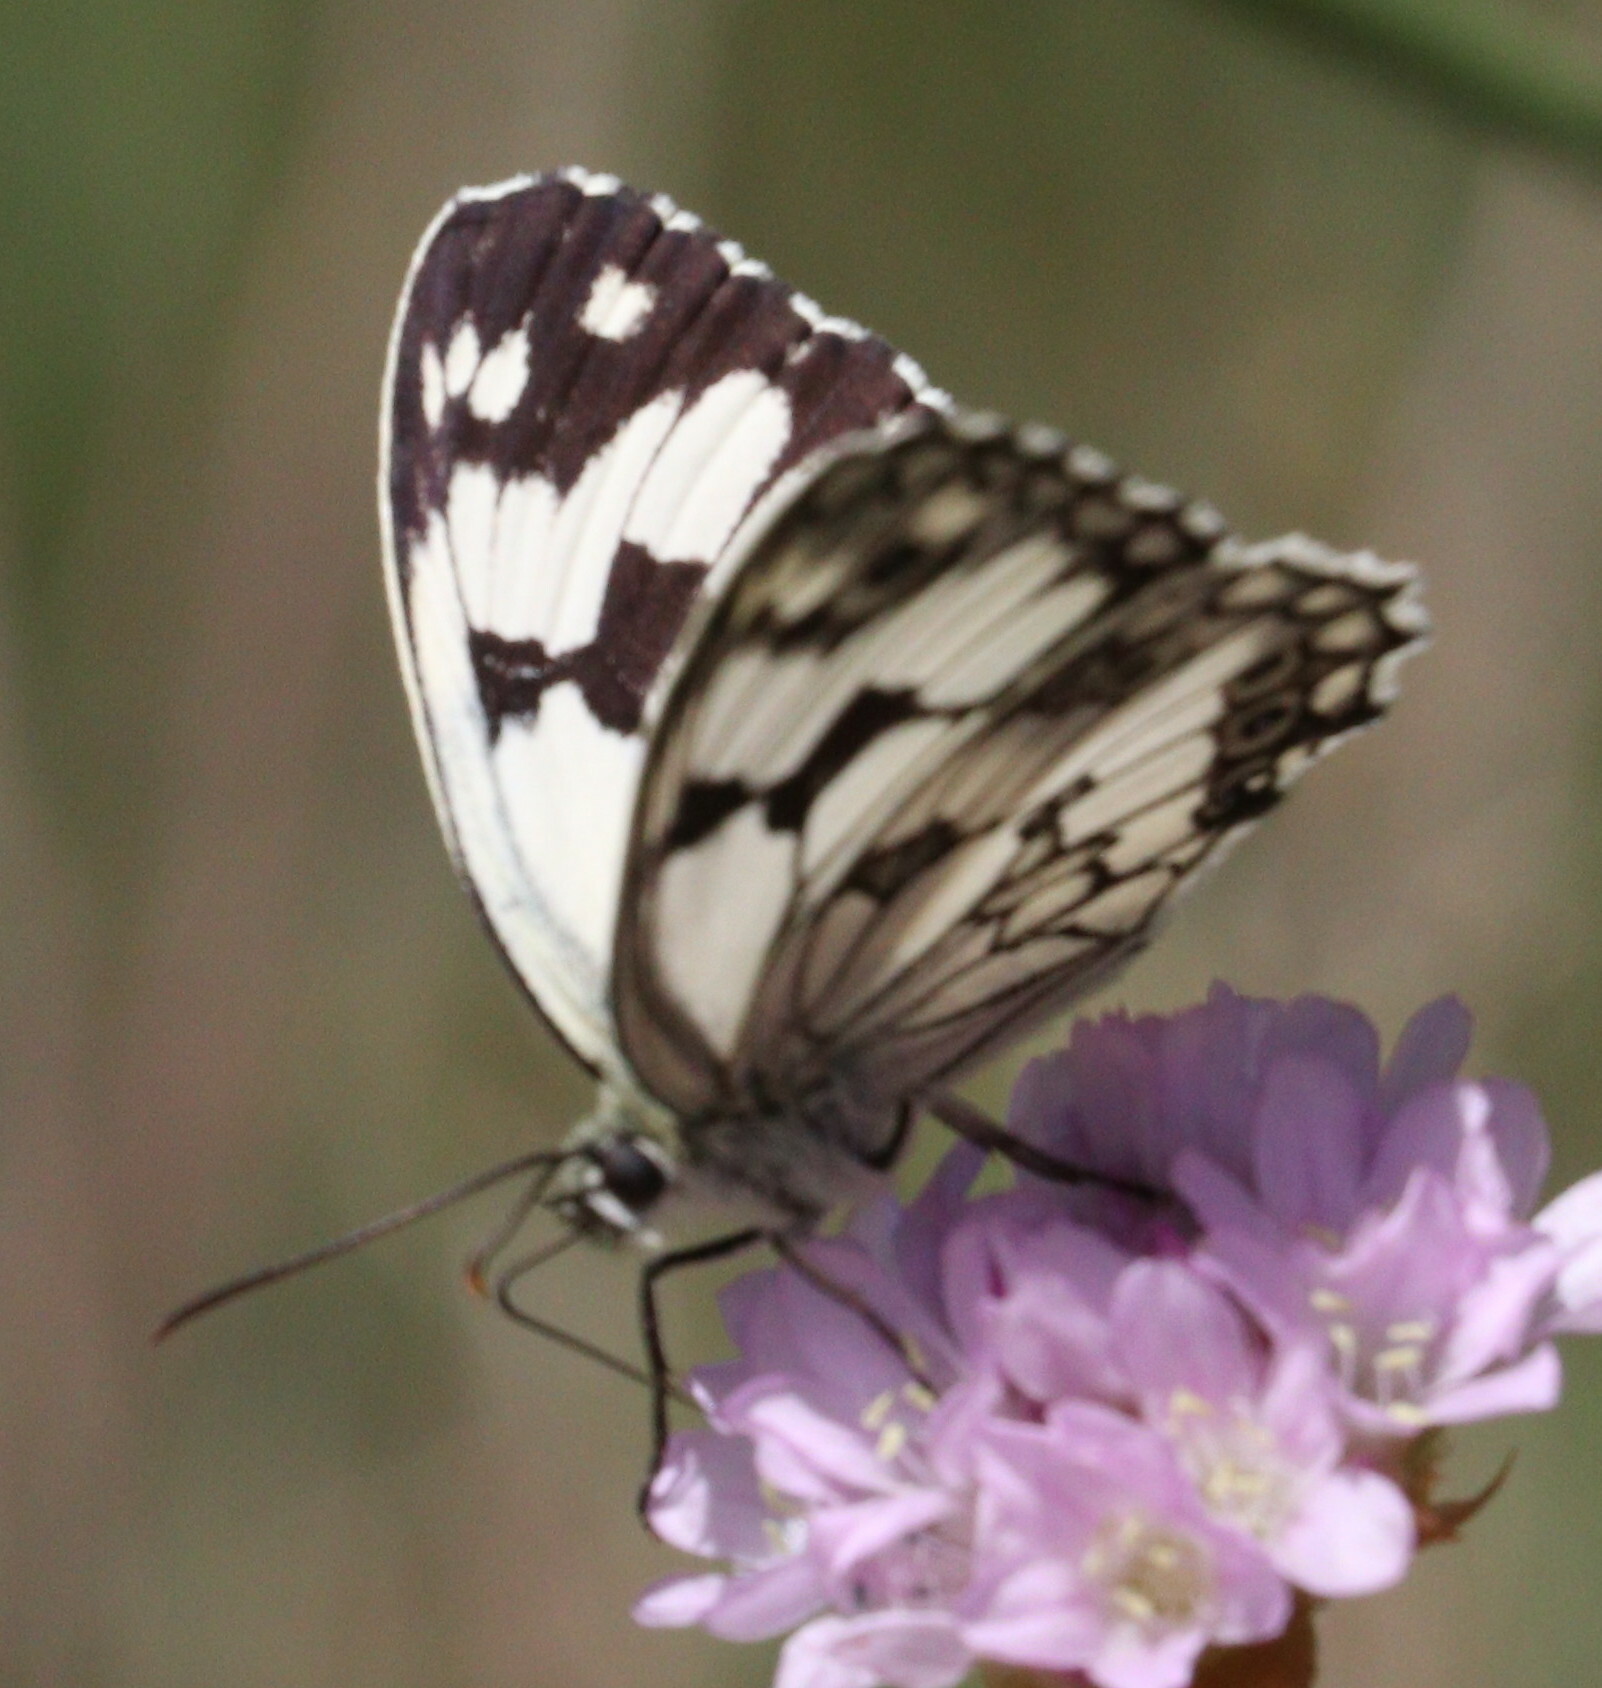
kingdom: Animalia
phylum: Arthropoda
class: Insecta
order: Lepidoptera
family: Nymphalidae
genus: Melanargia
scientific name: Melanargia lachesis
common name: Iberian marbled white
